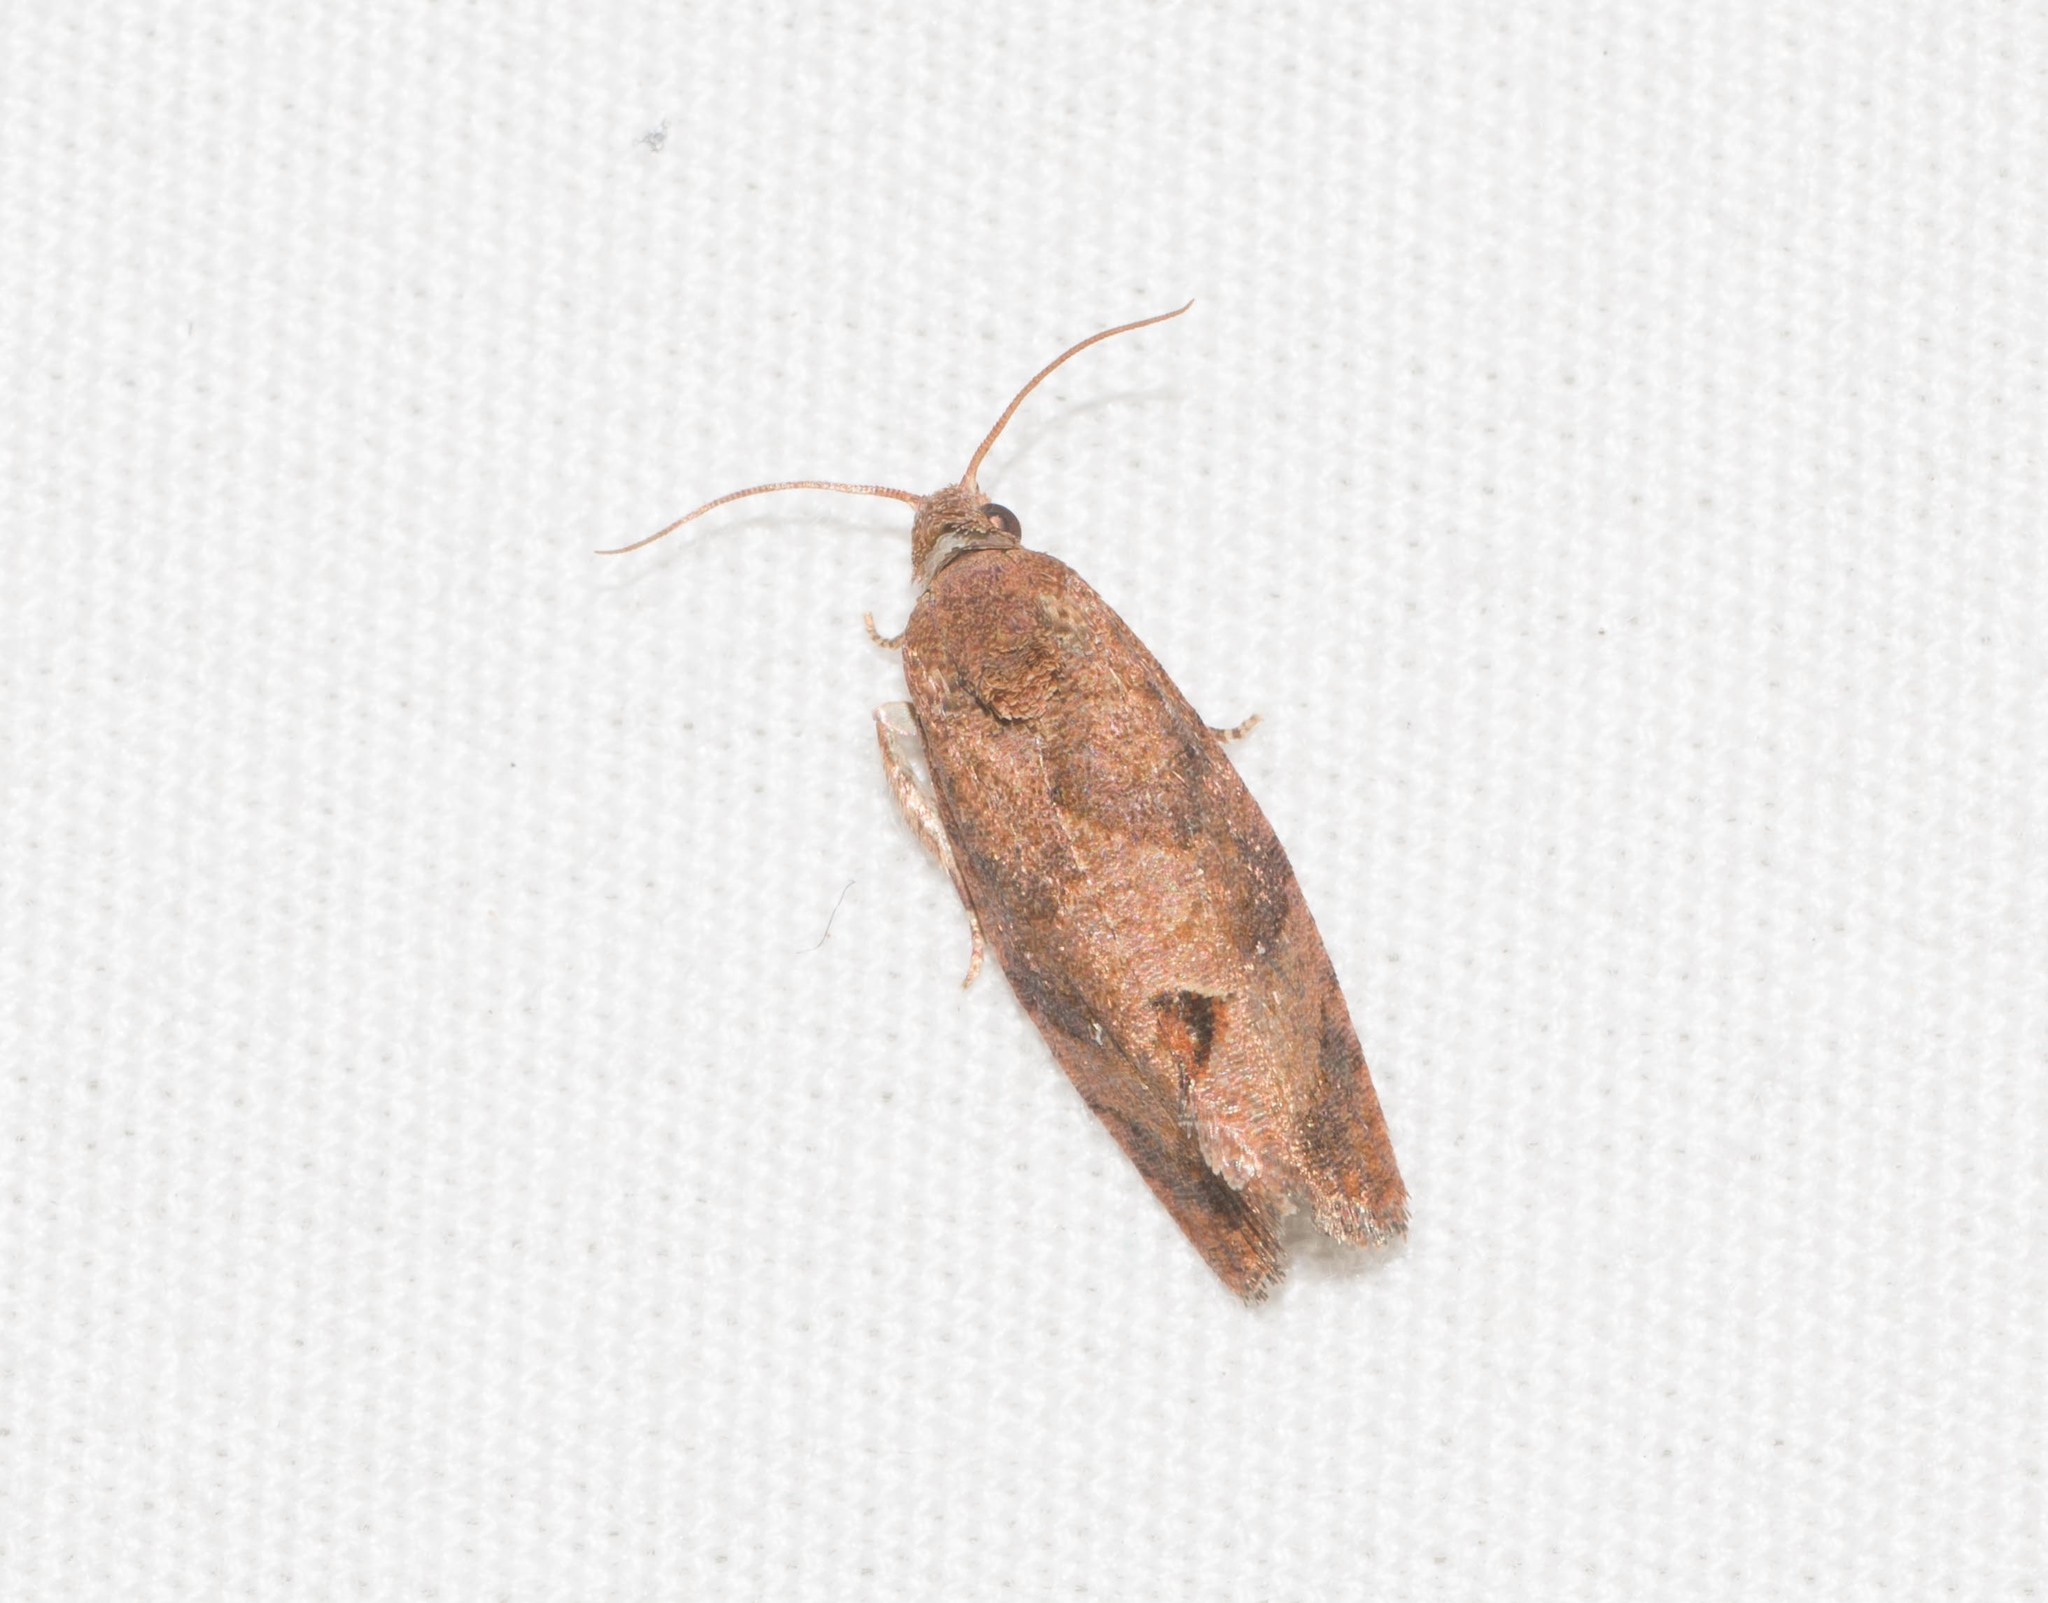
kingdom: Animalia
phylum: Arthropoda
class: Insecta
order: Lepidoptera
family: Tortricidae
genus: Cryptophlebia
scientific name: Cryptophlebia illepida
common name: Moth
